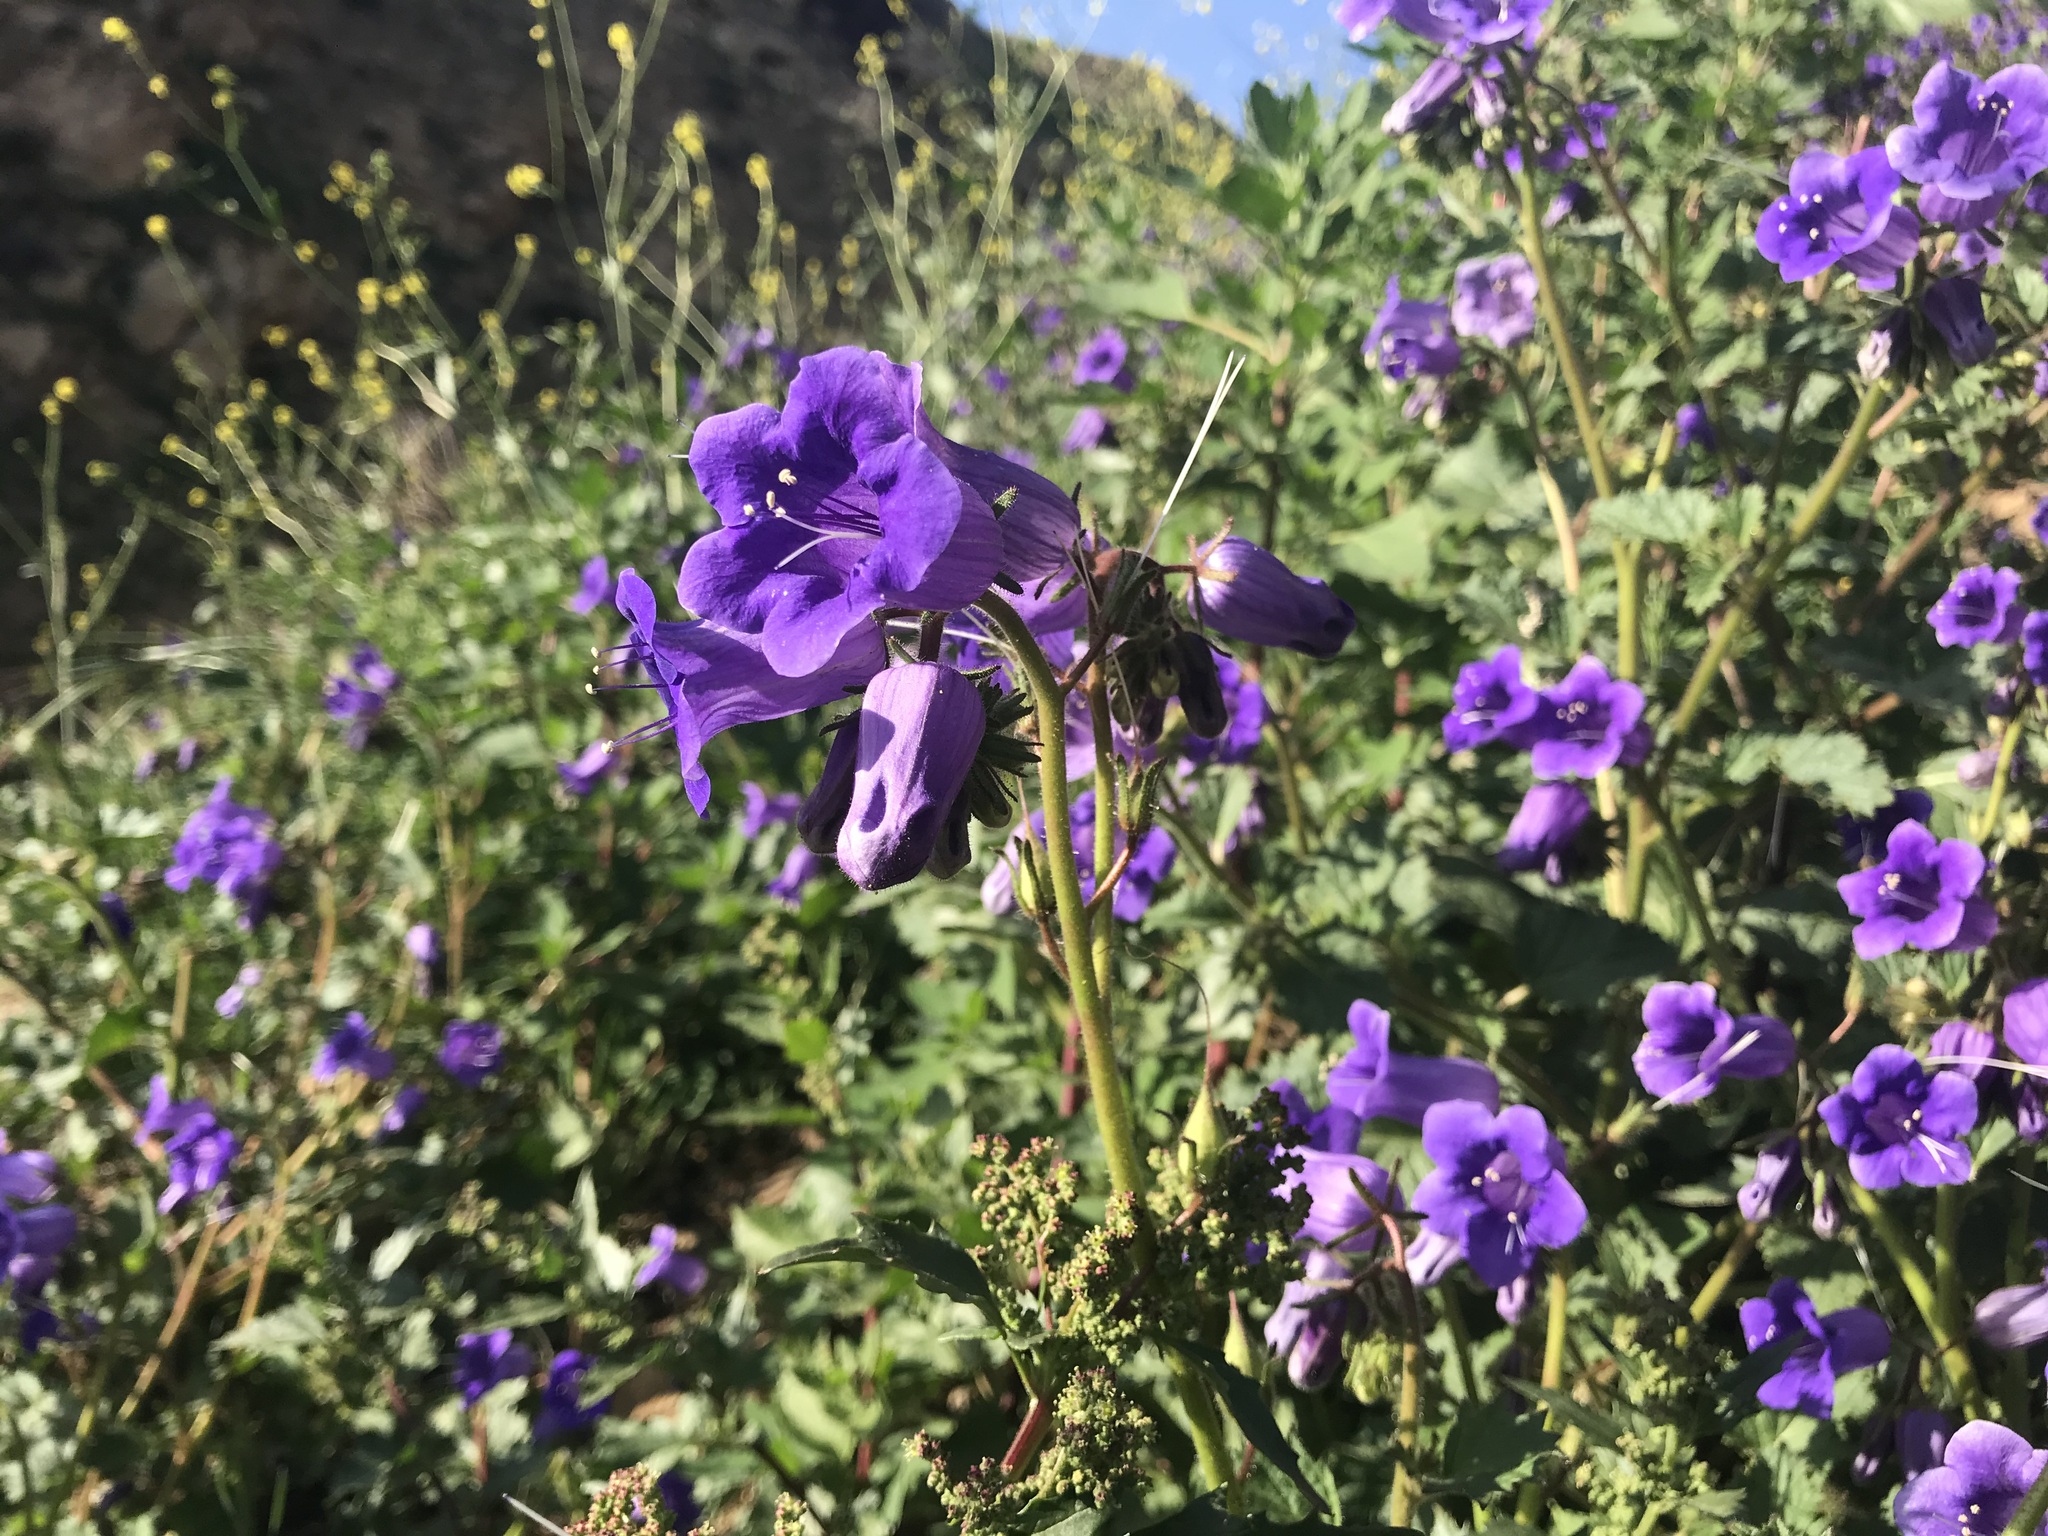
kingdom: Plantae
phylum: Tracheophyta
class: Magnoliopsida
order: Boraginales
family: Hydrophyllaceae
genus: Phacelia
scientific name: Phacelia minor
